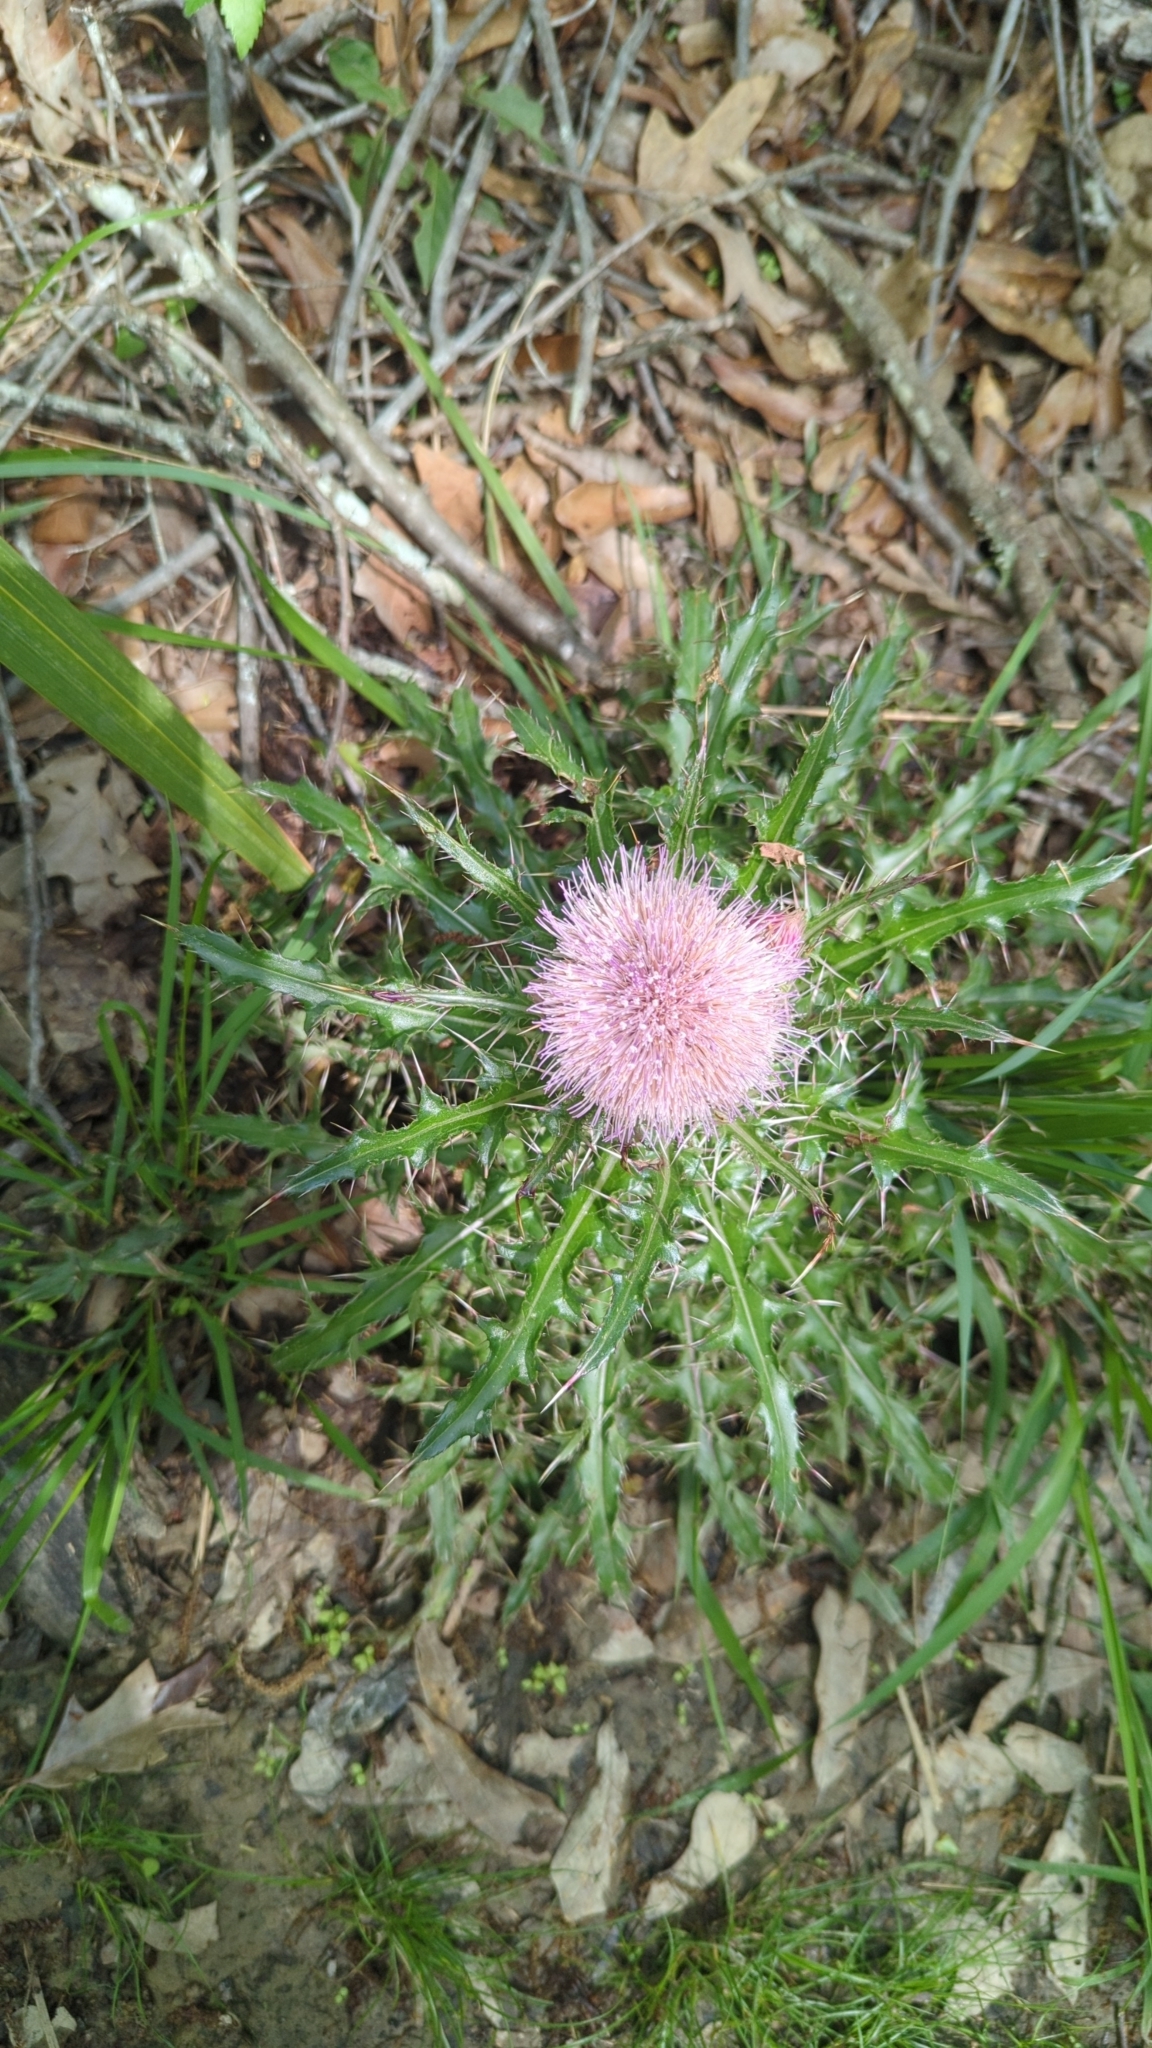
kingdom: Plantae
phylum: Tracheophyta
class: Magnoliopsida
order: Asterales
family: Asteraceae
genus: Cirsium
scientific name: Cirsium horridulum
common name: Bristly thistle
